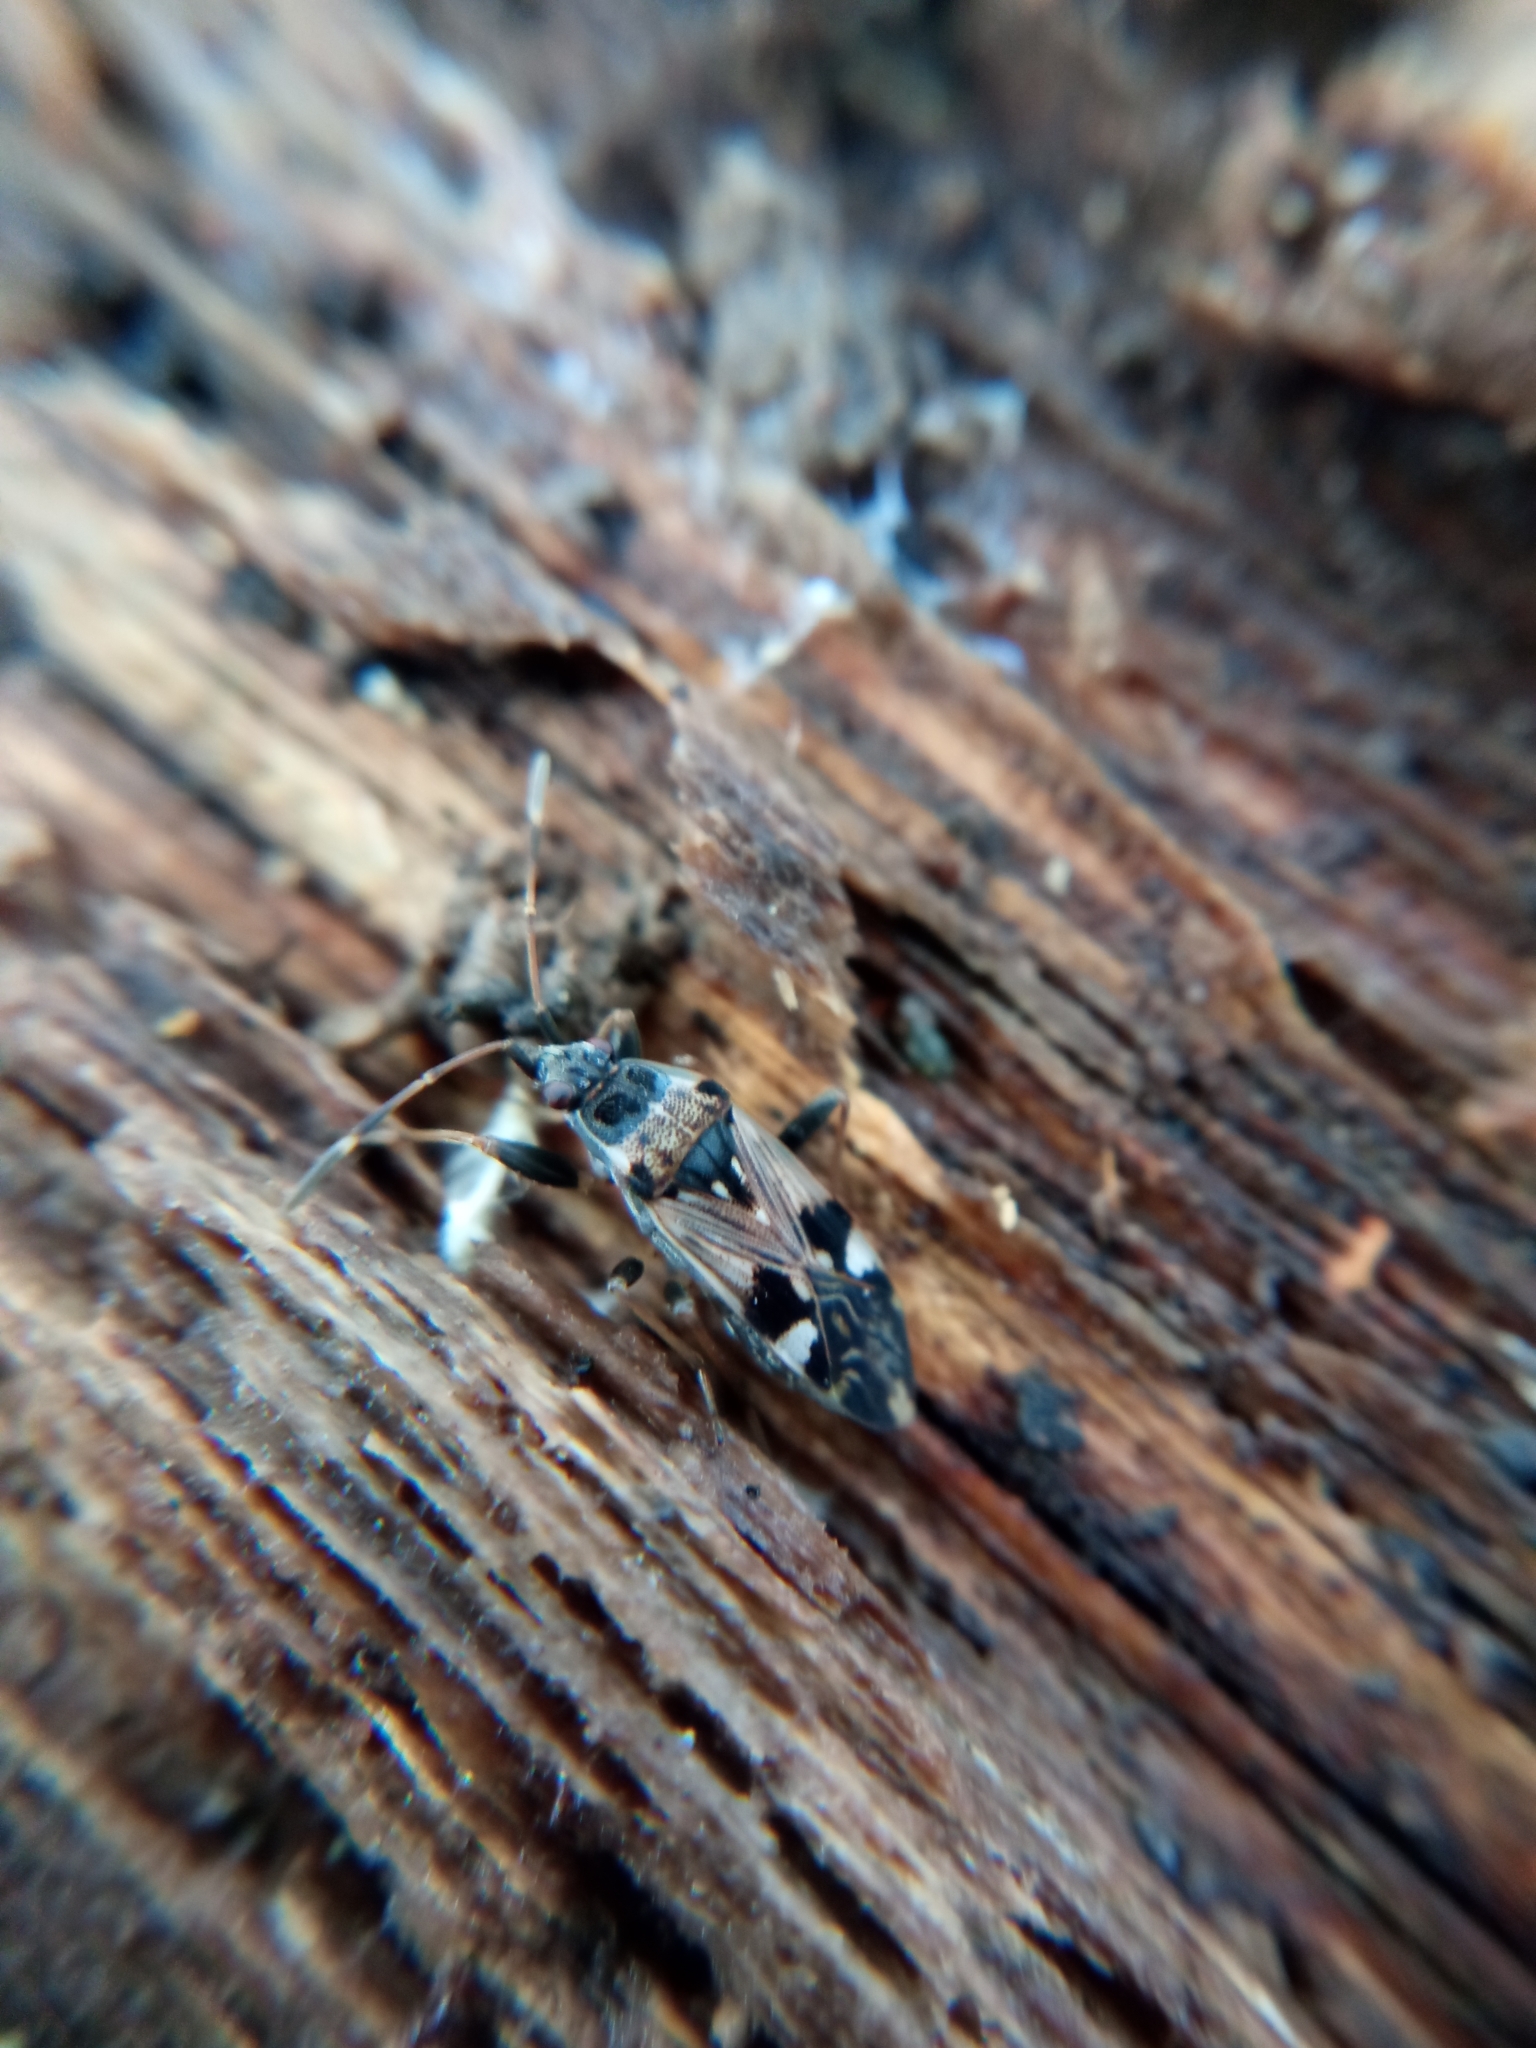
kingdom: Animalia
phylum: Arthropoda
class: Insecta
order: Hemiptera
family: Rhyparochromidae
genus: Beosus
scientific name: Beosus maritimus
